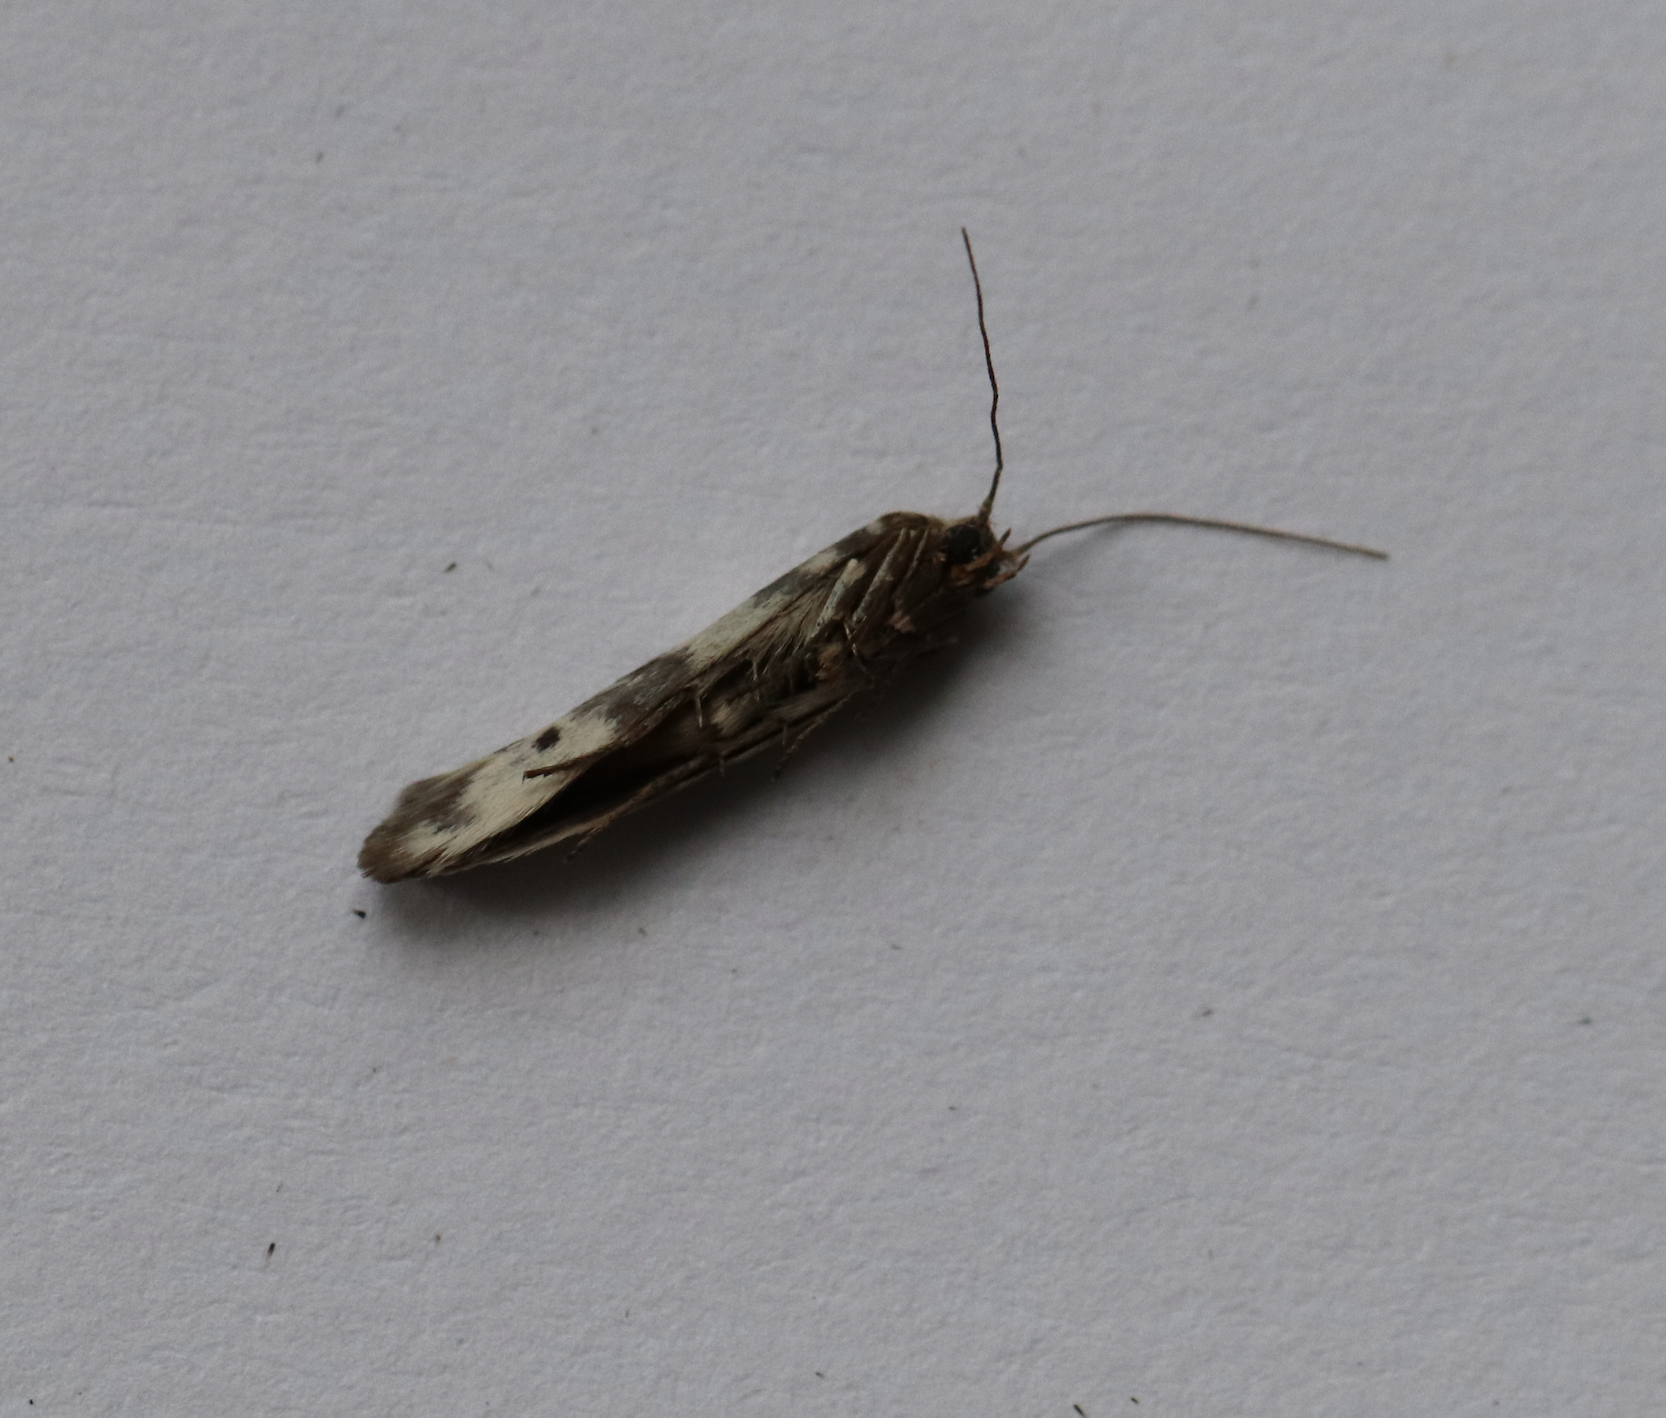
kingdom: Animalia
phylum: Arthropoda
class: Insecta
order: Lepidoptera
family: Scythrididae
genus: Enolmis
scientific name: Enolmis acanthella
